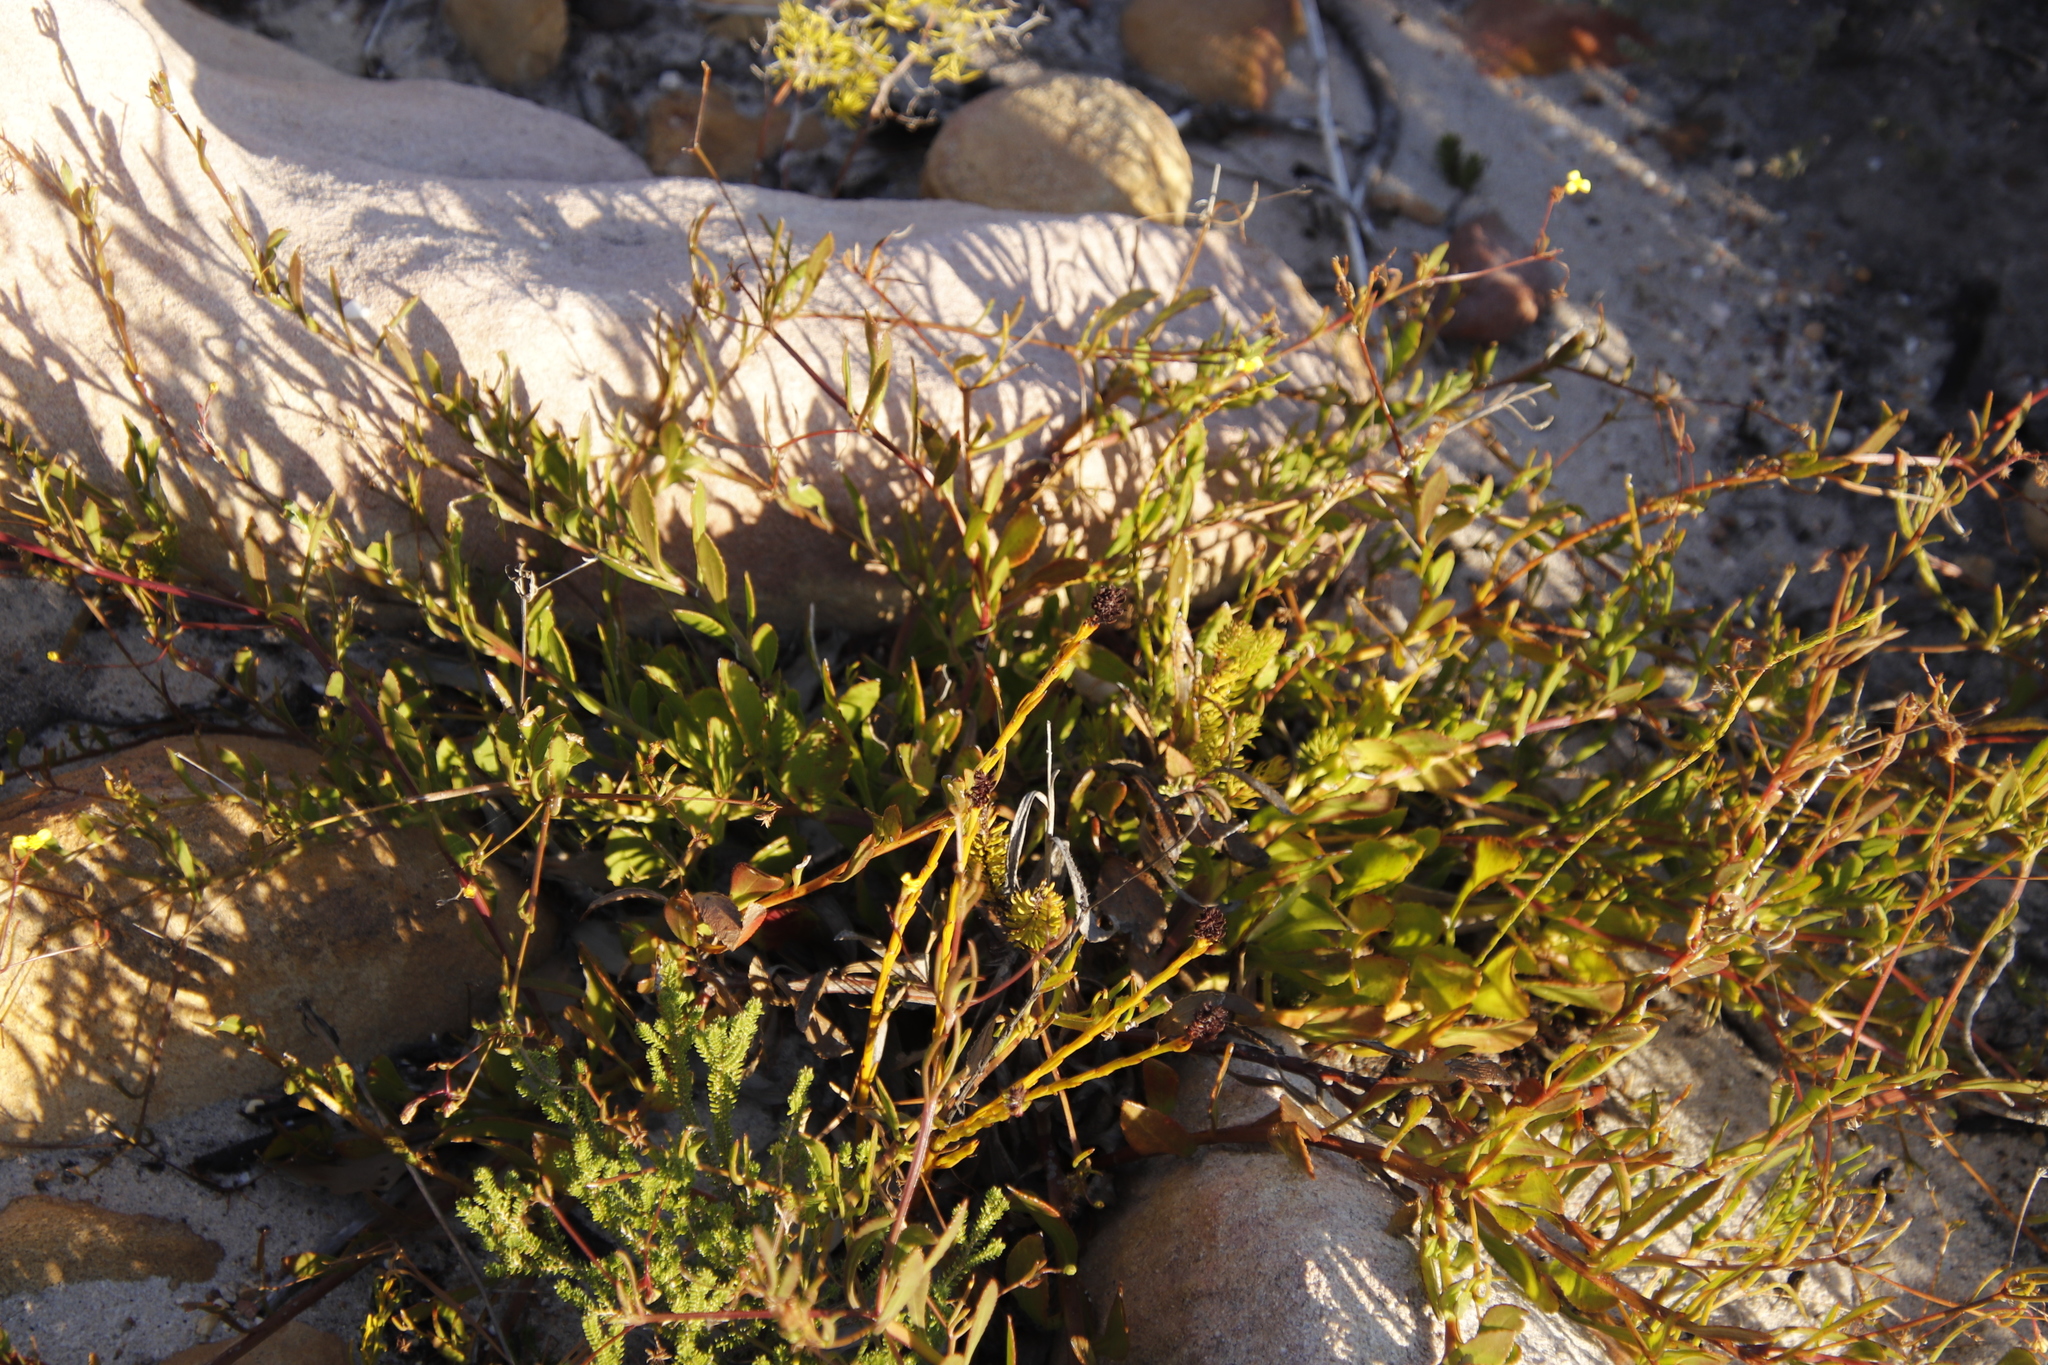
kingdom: Plantae
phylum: Tracheophyta
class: Magnoliopsida
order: Asterales
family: Asteraceae
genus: Osteospermum
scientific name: Osteospermum ciliatum
